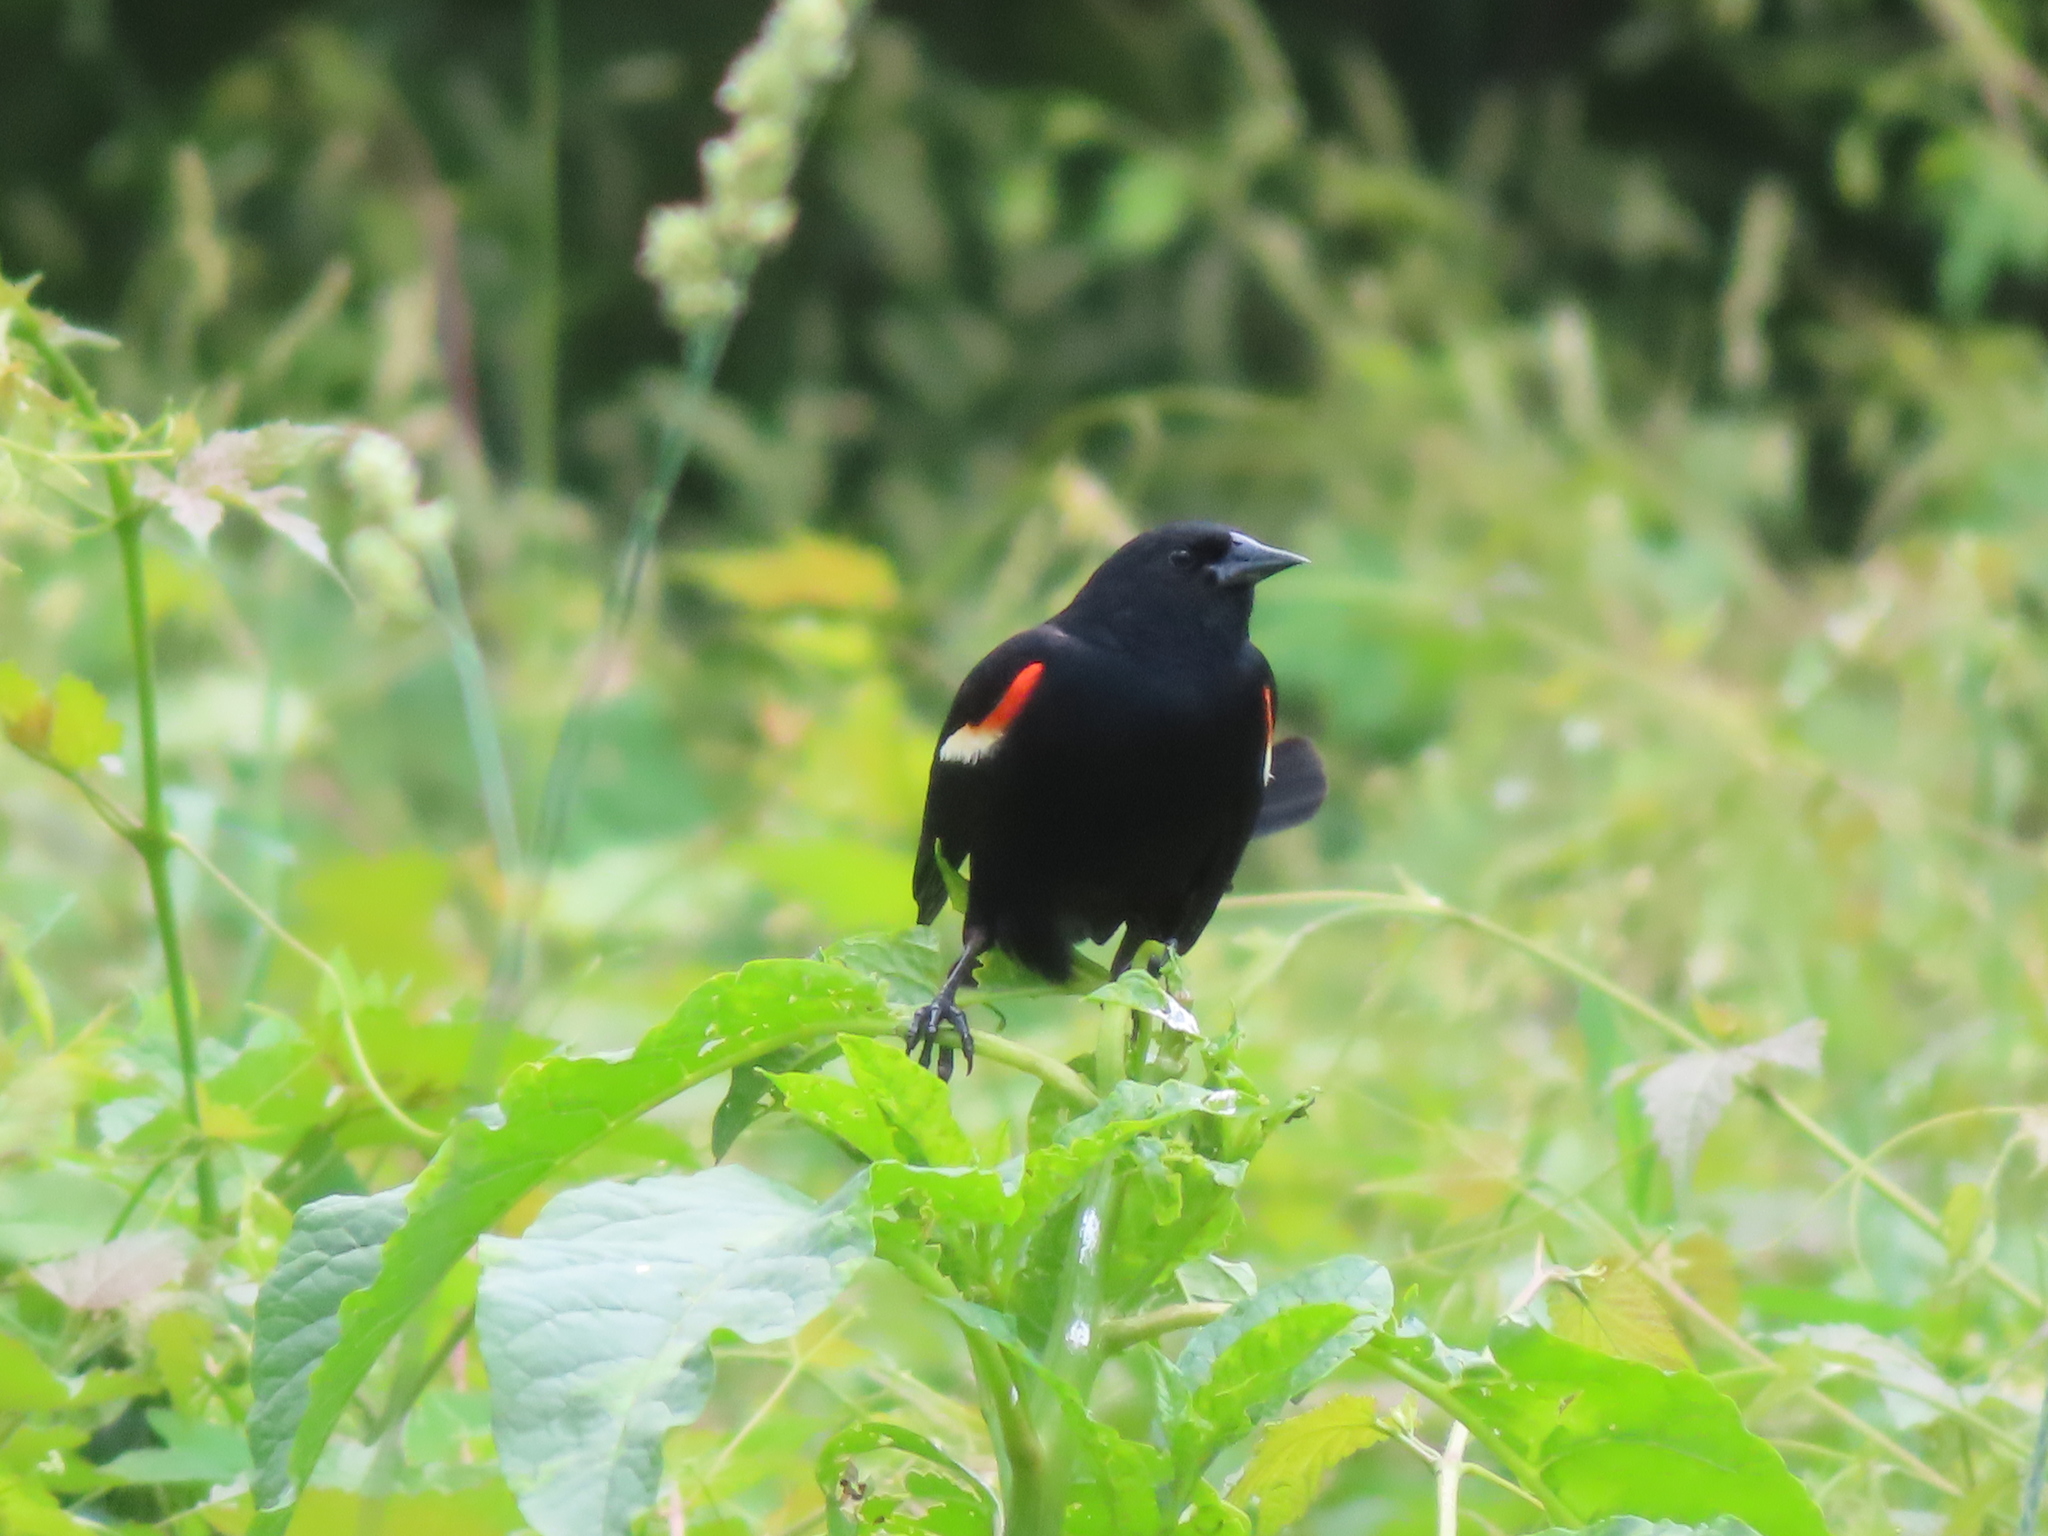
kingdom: Animalia
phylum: Chordata
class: Aves
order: Passeriformes
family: Icteridae
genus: Agelaius
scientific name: Agelaius phoeniceus
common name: Red-winged blackbird
